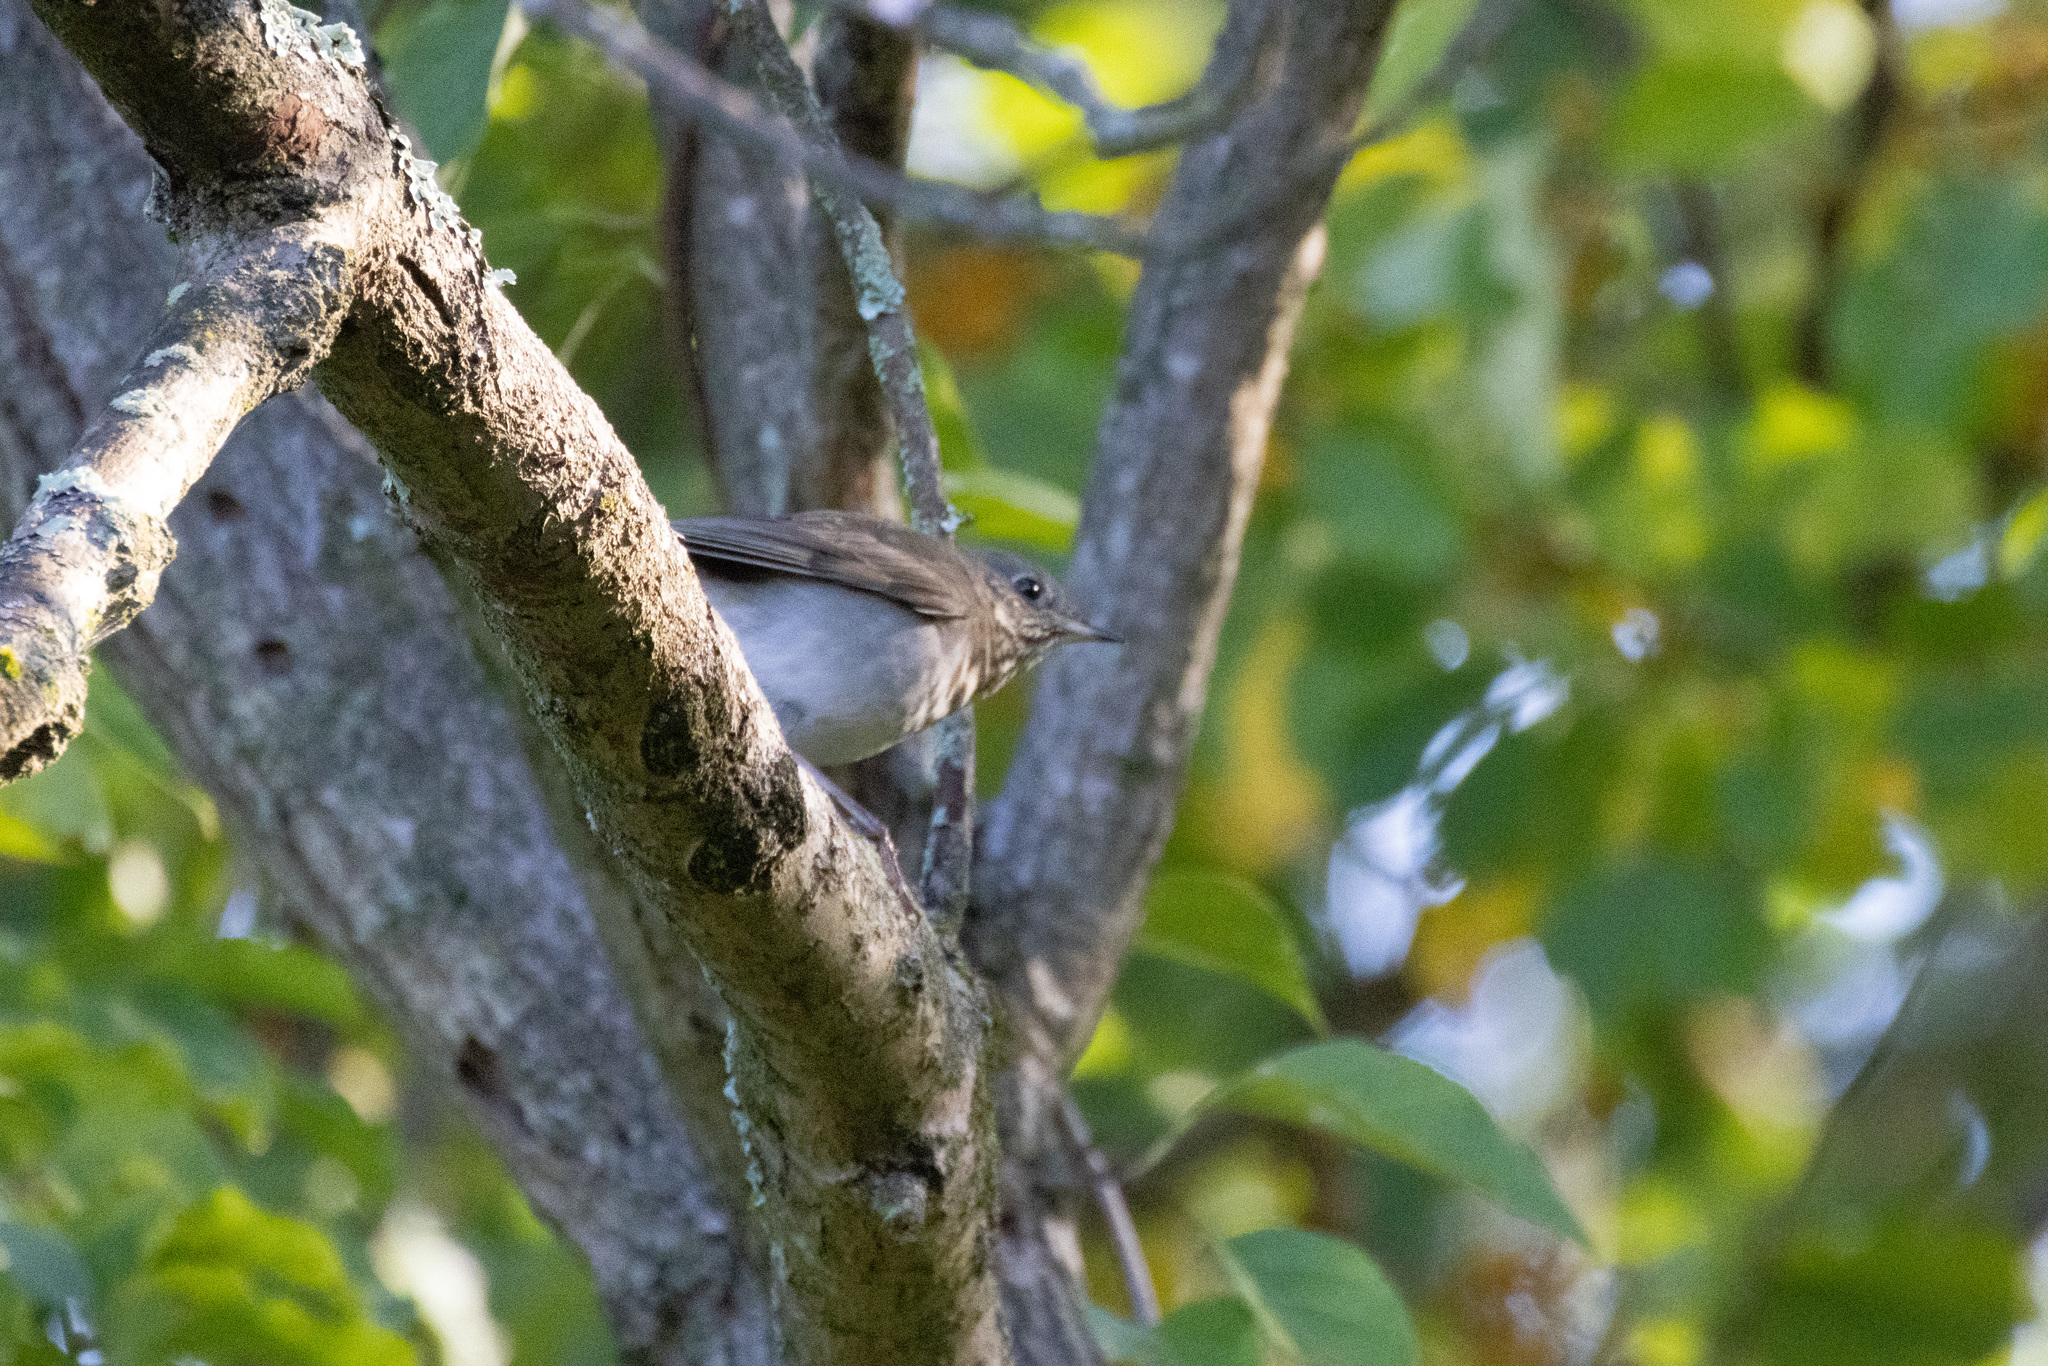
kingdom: Animalia
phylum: Chordata
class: Aves
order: Passeriformes
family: Turdidae
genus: Catharus
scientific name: Catharus minimus
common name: Grey-cheeked thrush
